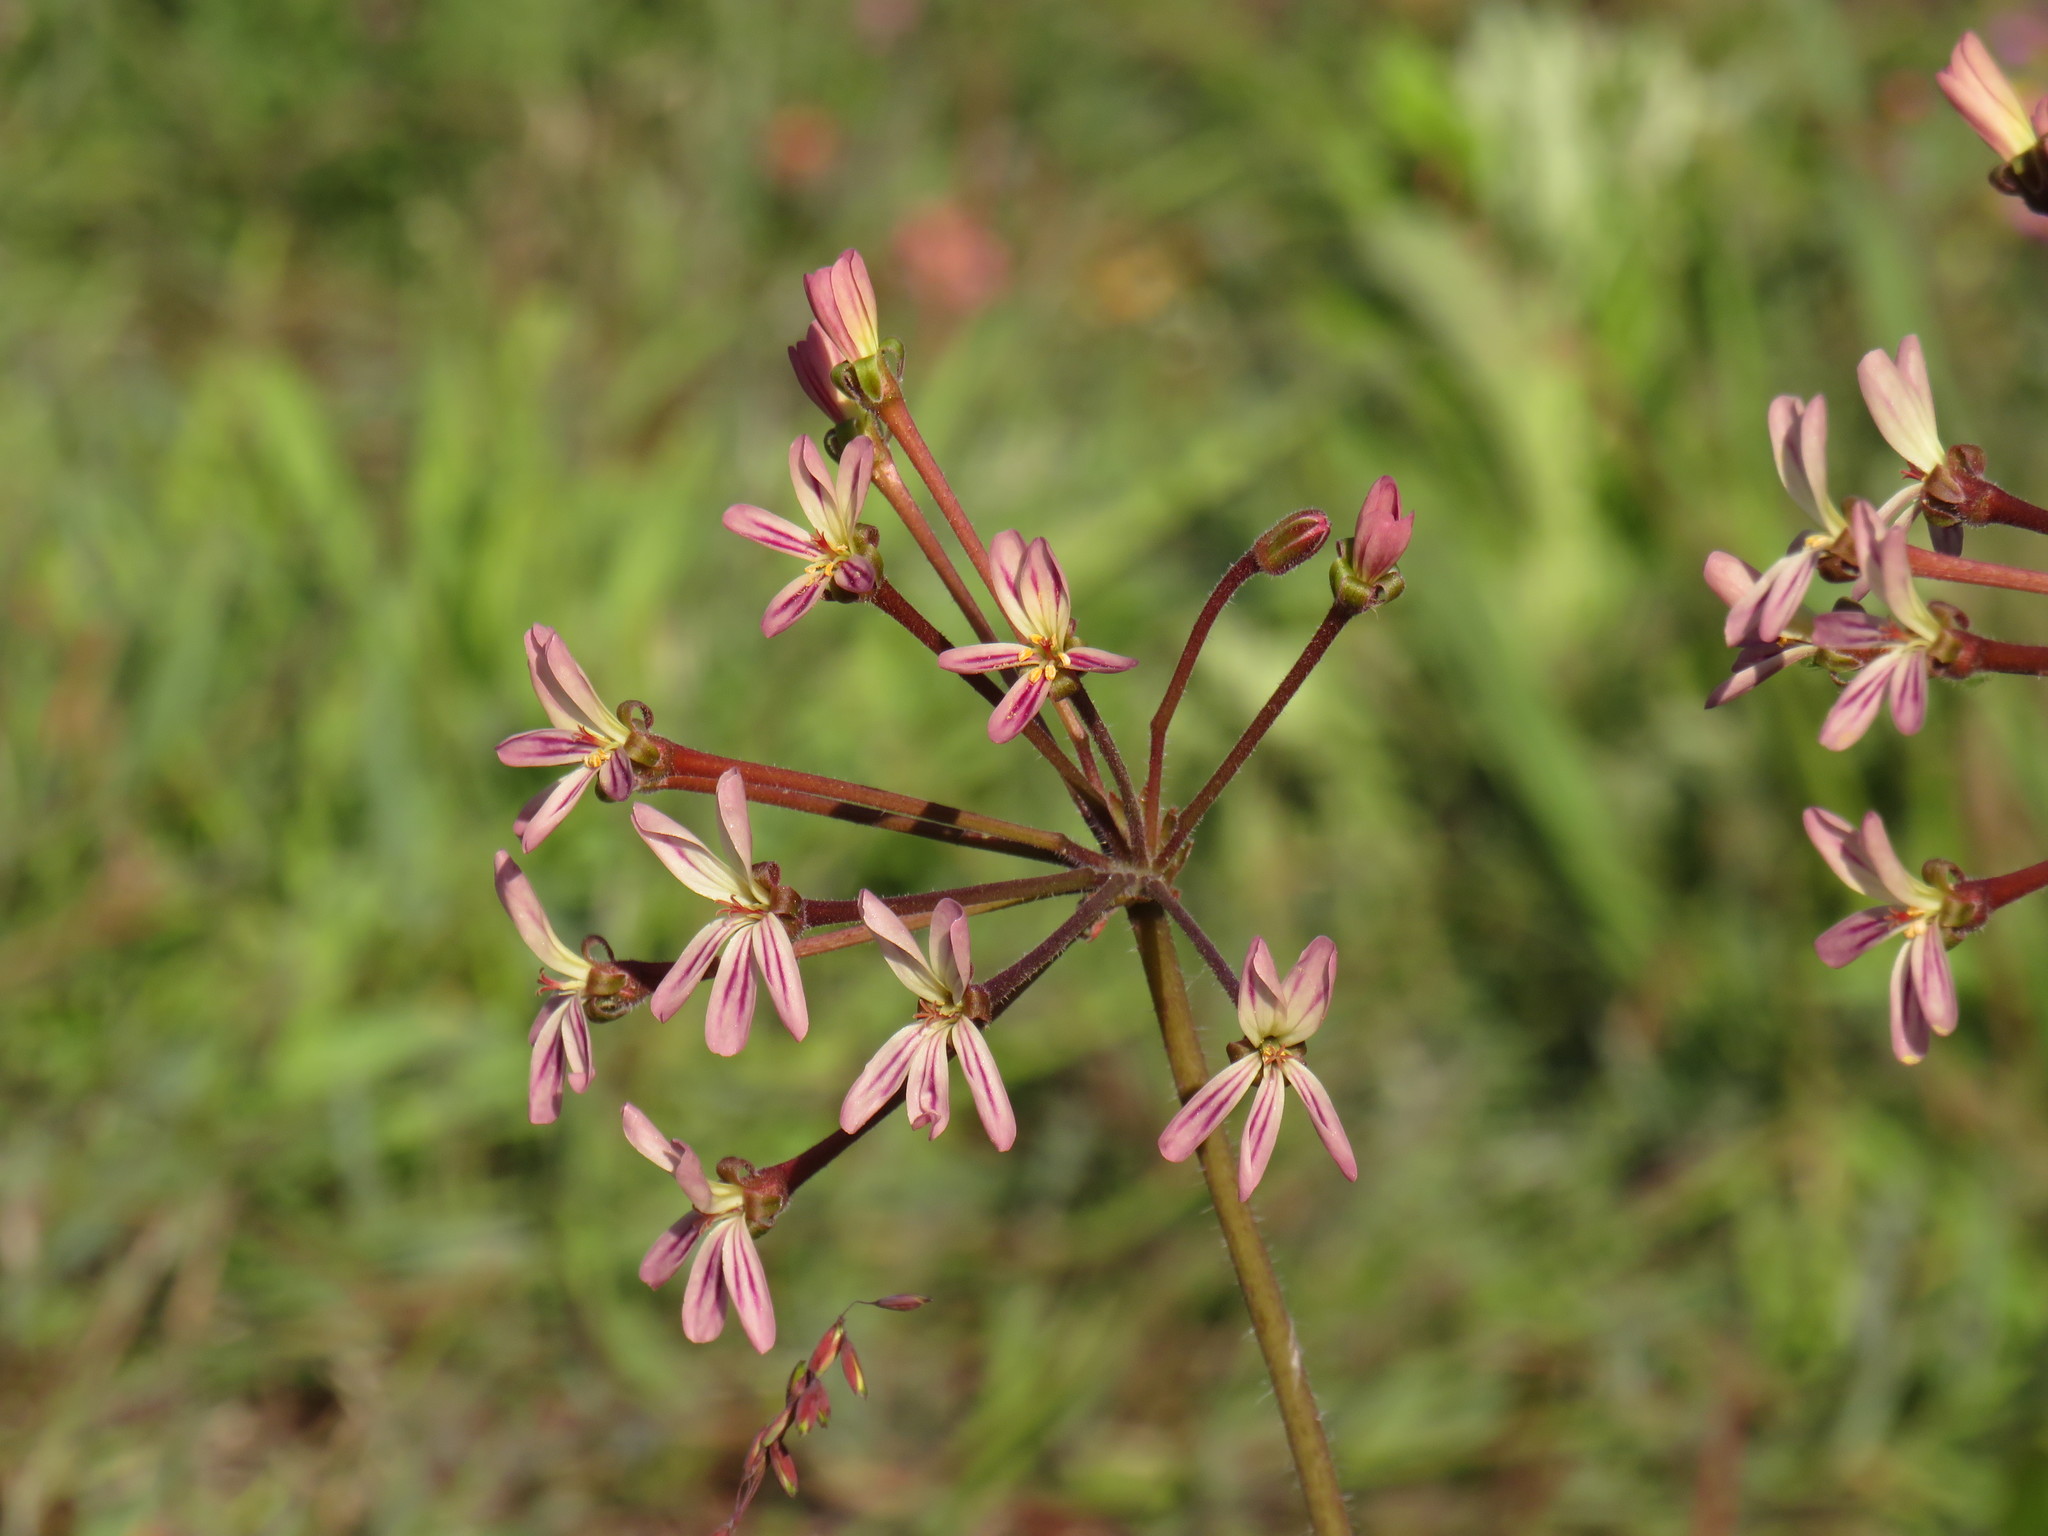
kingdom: Plantae
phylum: Tracheophyta
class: Magnoliopsida
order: Geraniales
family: Geraniaceae
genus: Pelargonium
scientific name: Pelargonium triste
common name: Night-scent pelargonium
